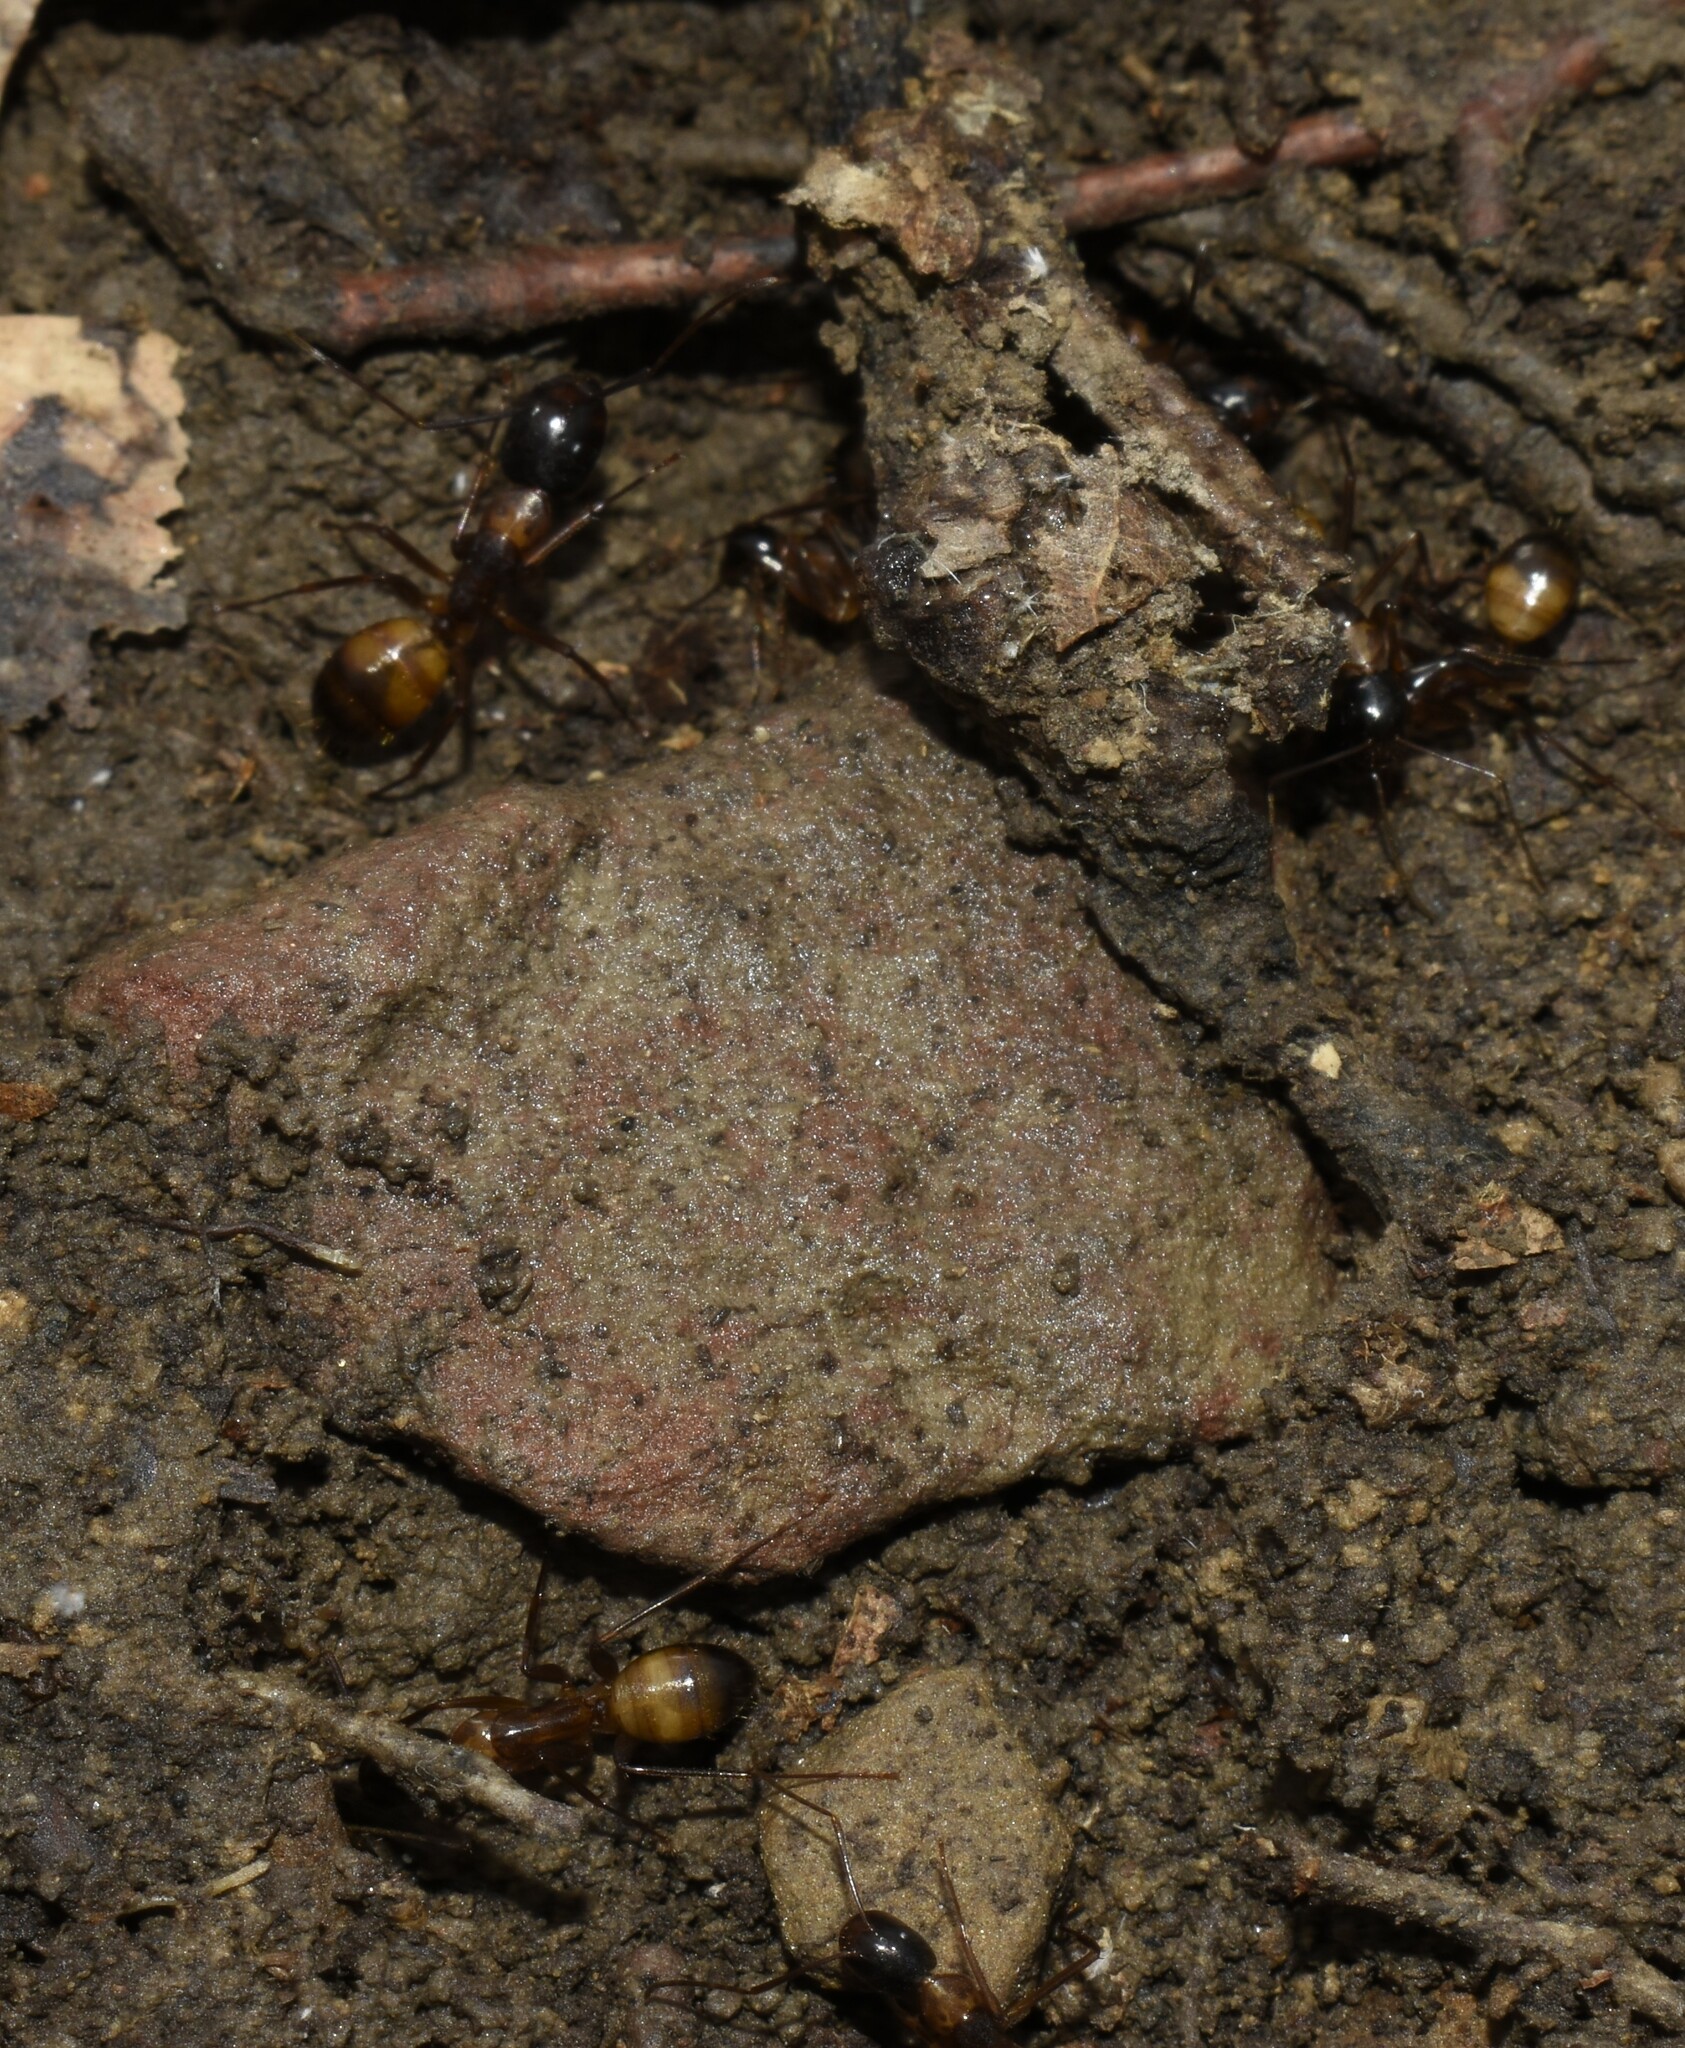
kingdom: Animalia
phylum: Arthropoda
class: Insecta
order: Hymenoptera
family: Formicidae
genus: Camponotus
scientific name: Camponotus americanus
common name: American carpenter ant
